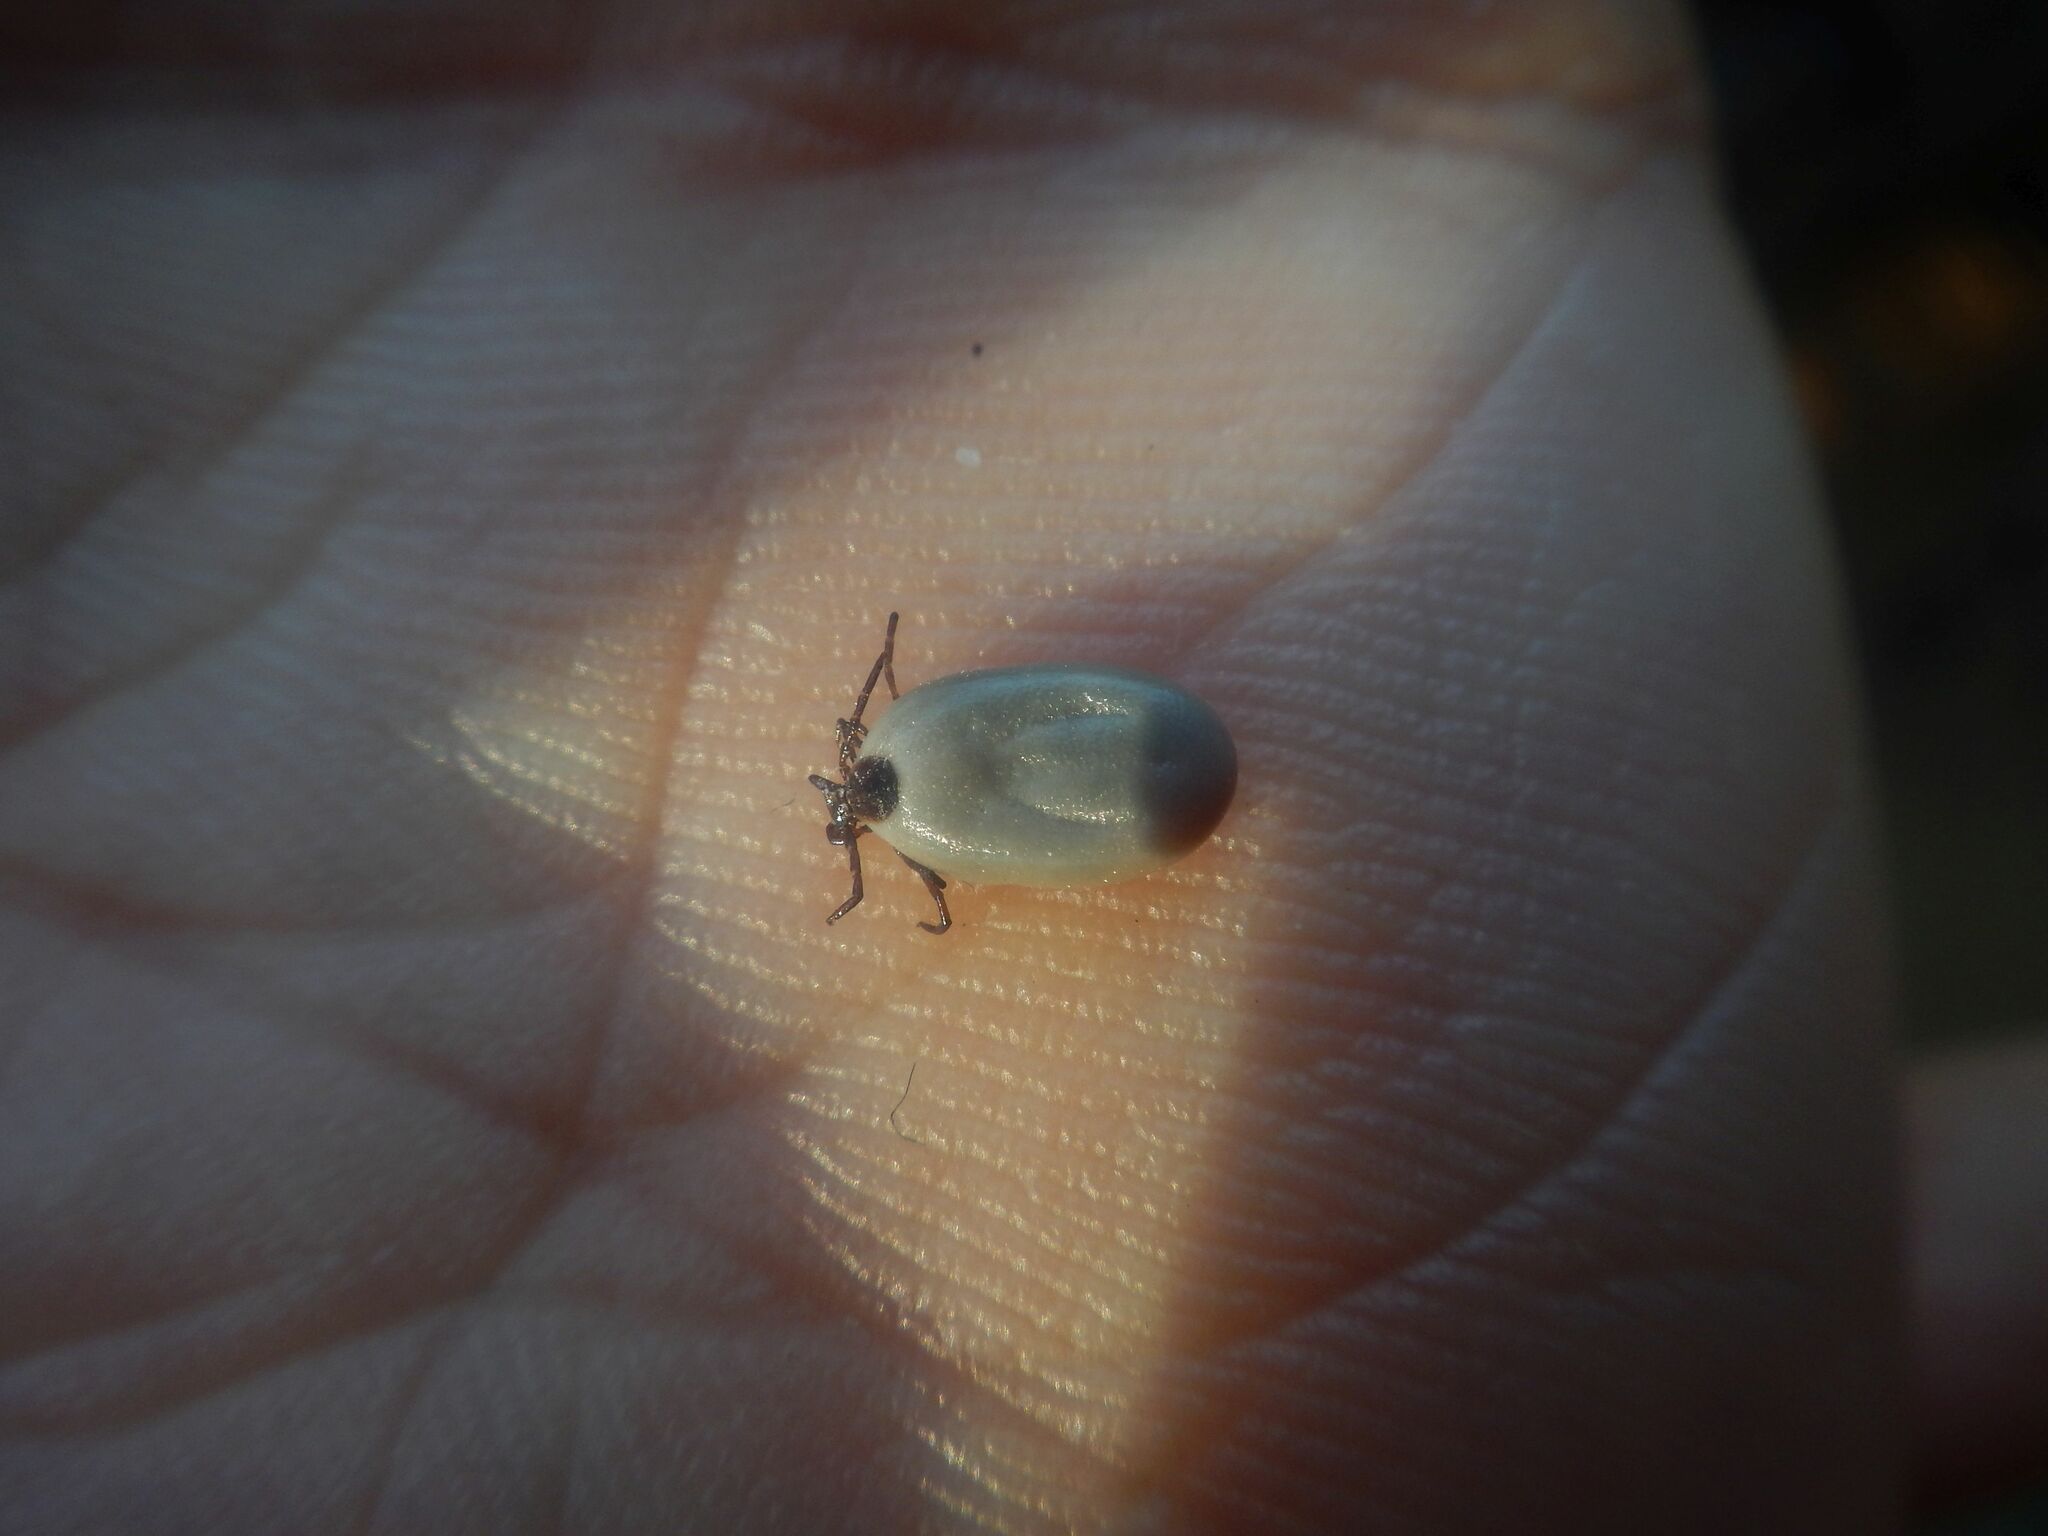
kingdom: Animalia
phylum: Arthropoda
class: Arachnida
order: Ixodida
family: Ixodidae
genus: Ixodes
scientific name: Ixodes scapularis
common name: Black legged tick
